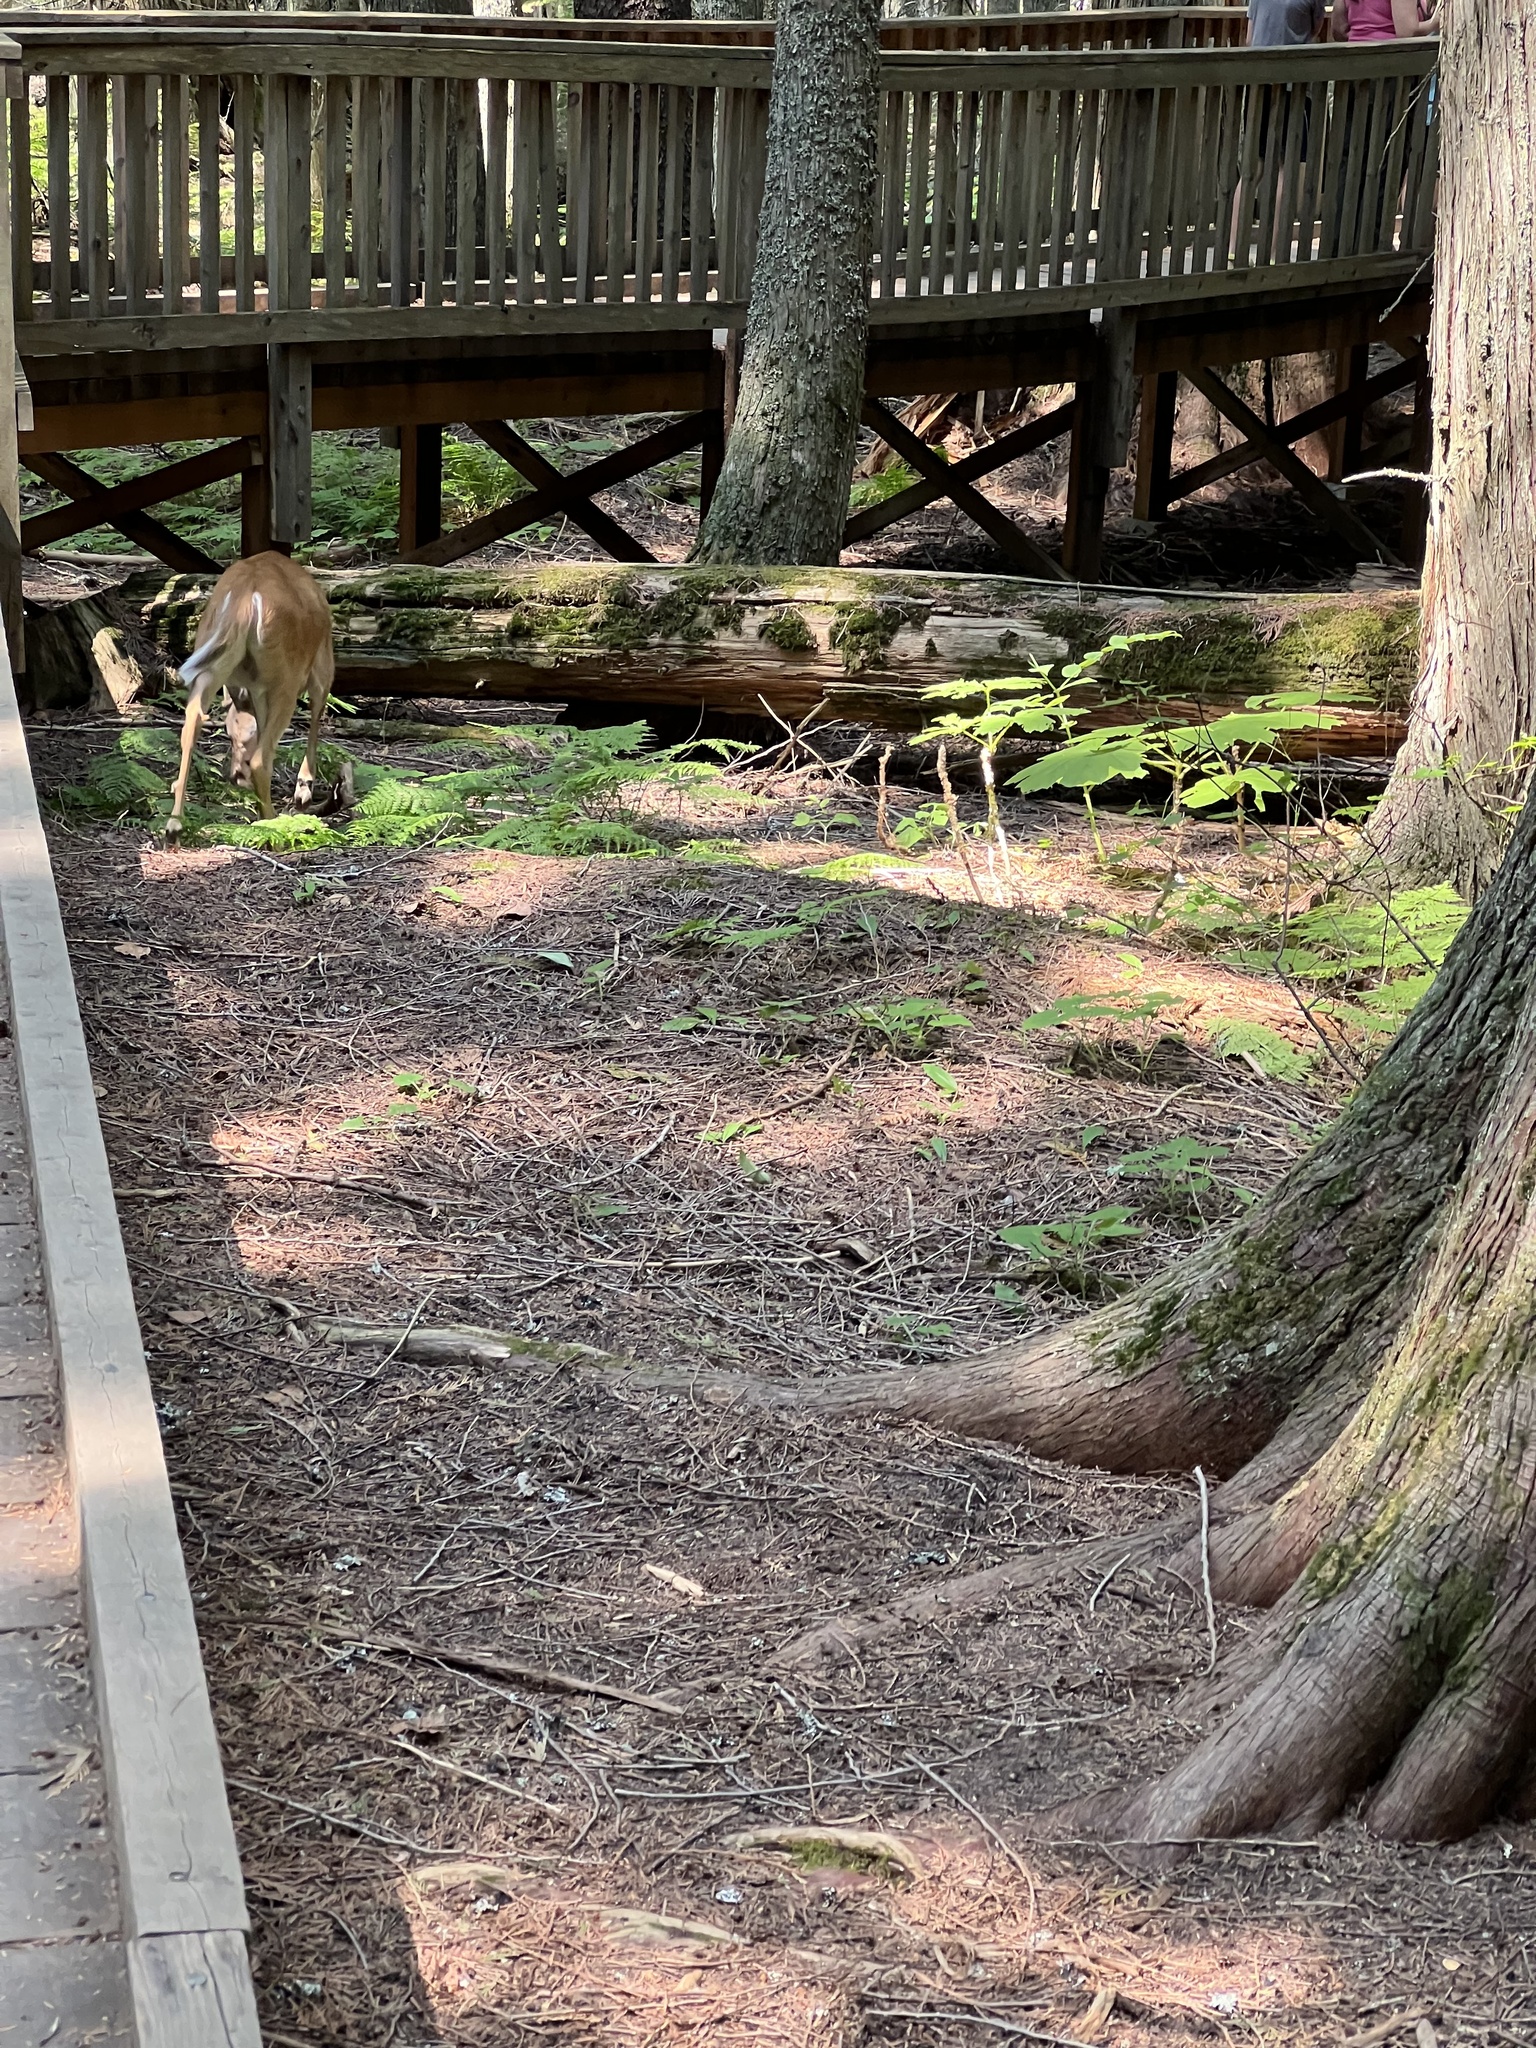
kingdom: Animalia
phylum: Chordata
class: Mammalia
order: Artiodactyla
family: Cervidae
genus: Odocoileus
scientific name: Odocoileus virginianus
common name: White-tailed deer
